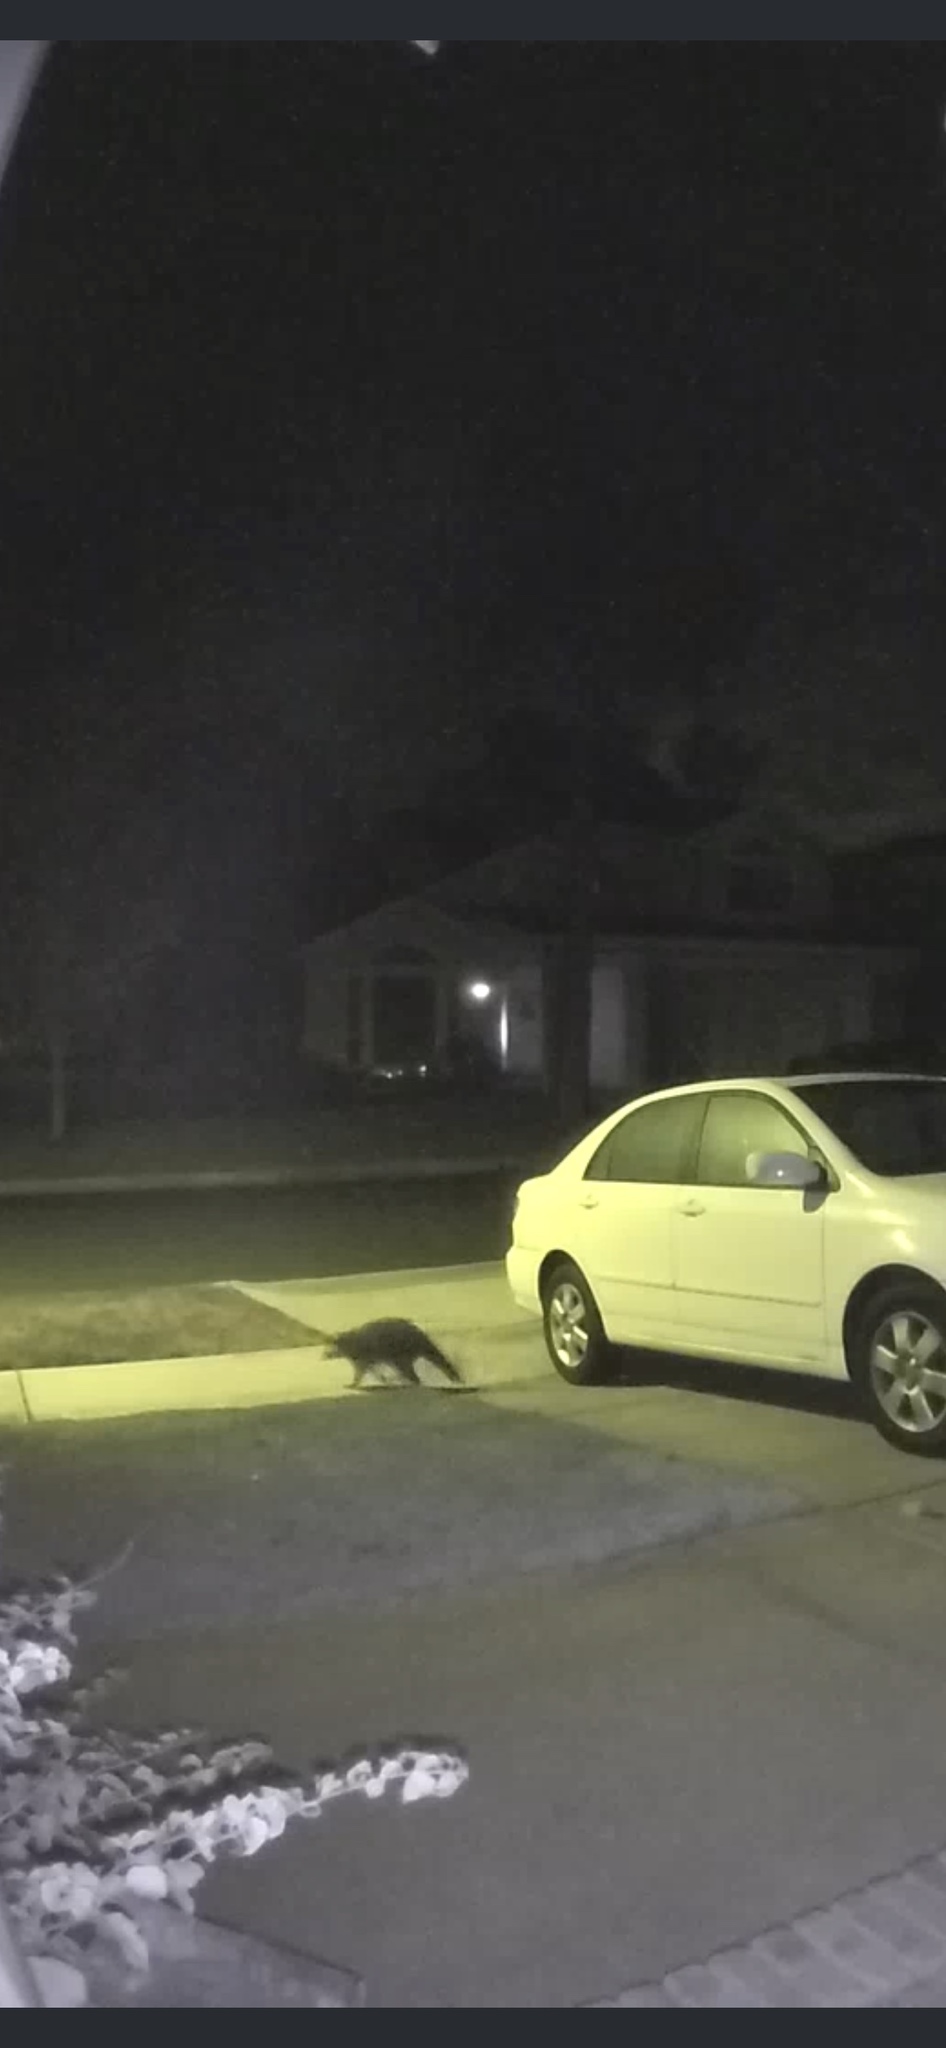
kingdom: Animalia
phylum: Chordata
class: Mammalia
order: Carnivora
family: Procyonidae
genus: Procyon
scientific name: Procyon lotor
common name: Raccoon
